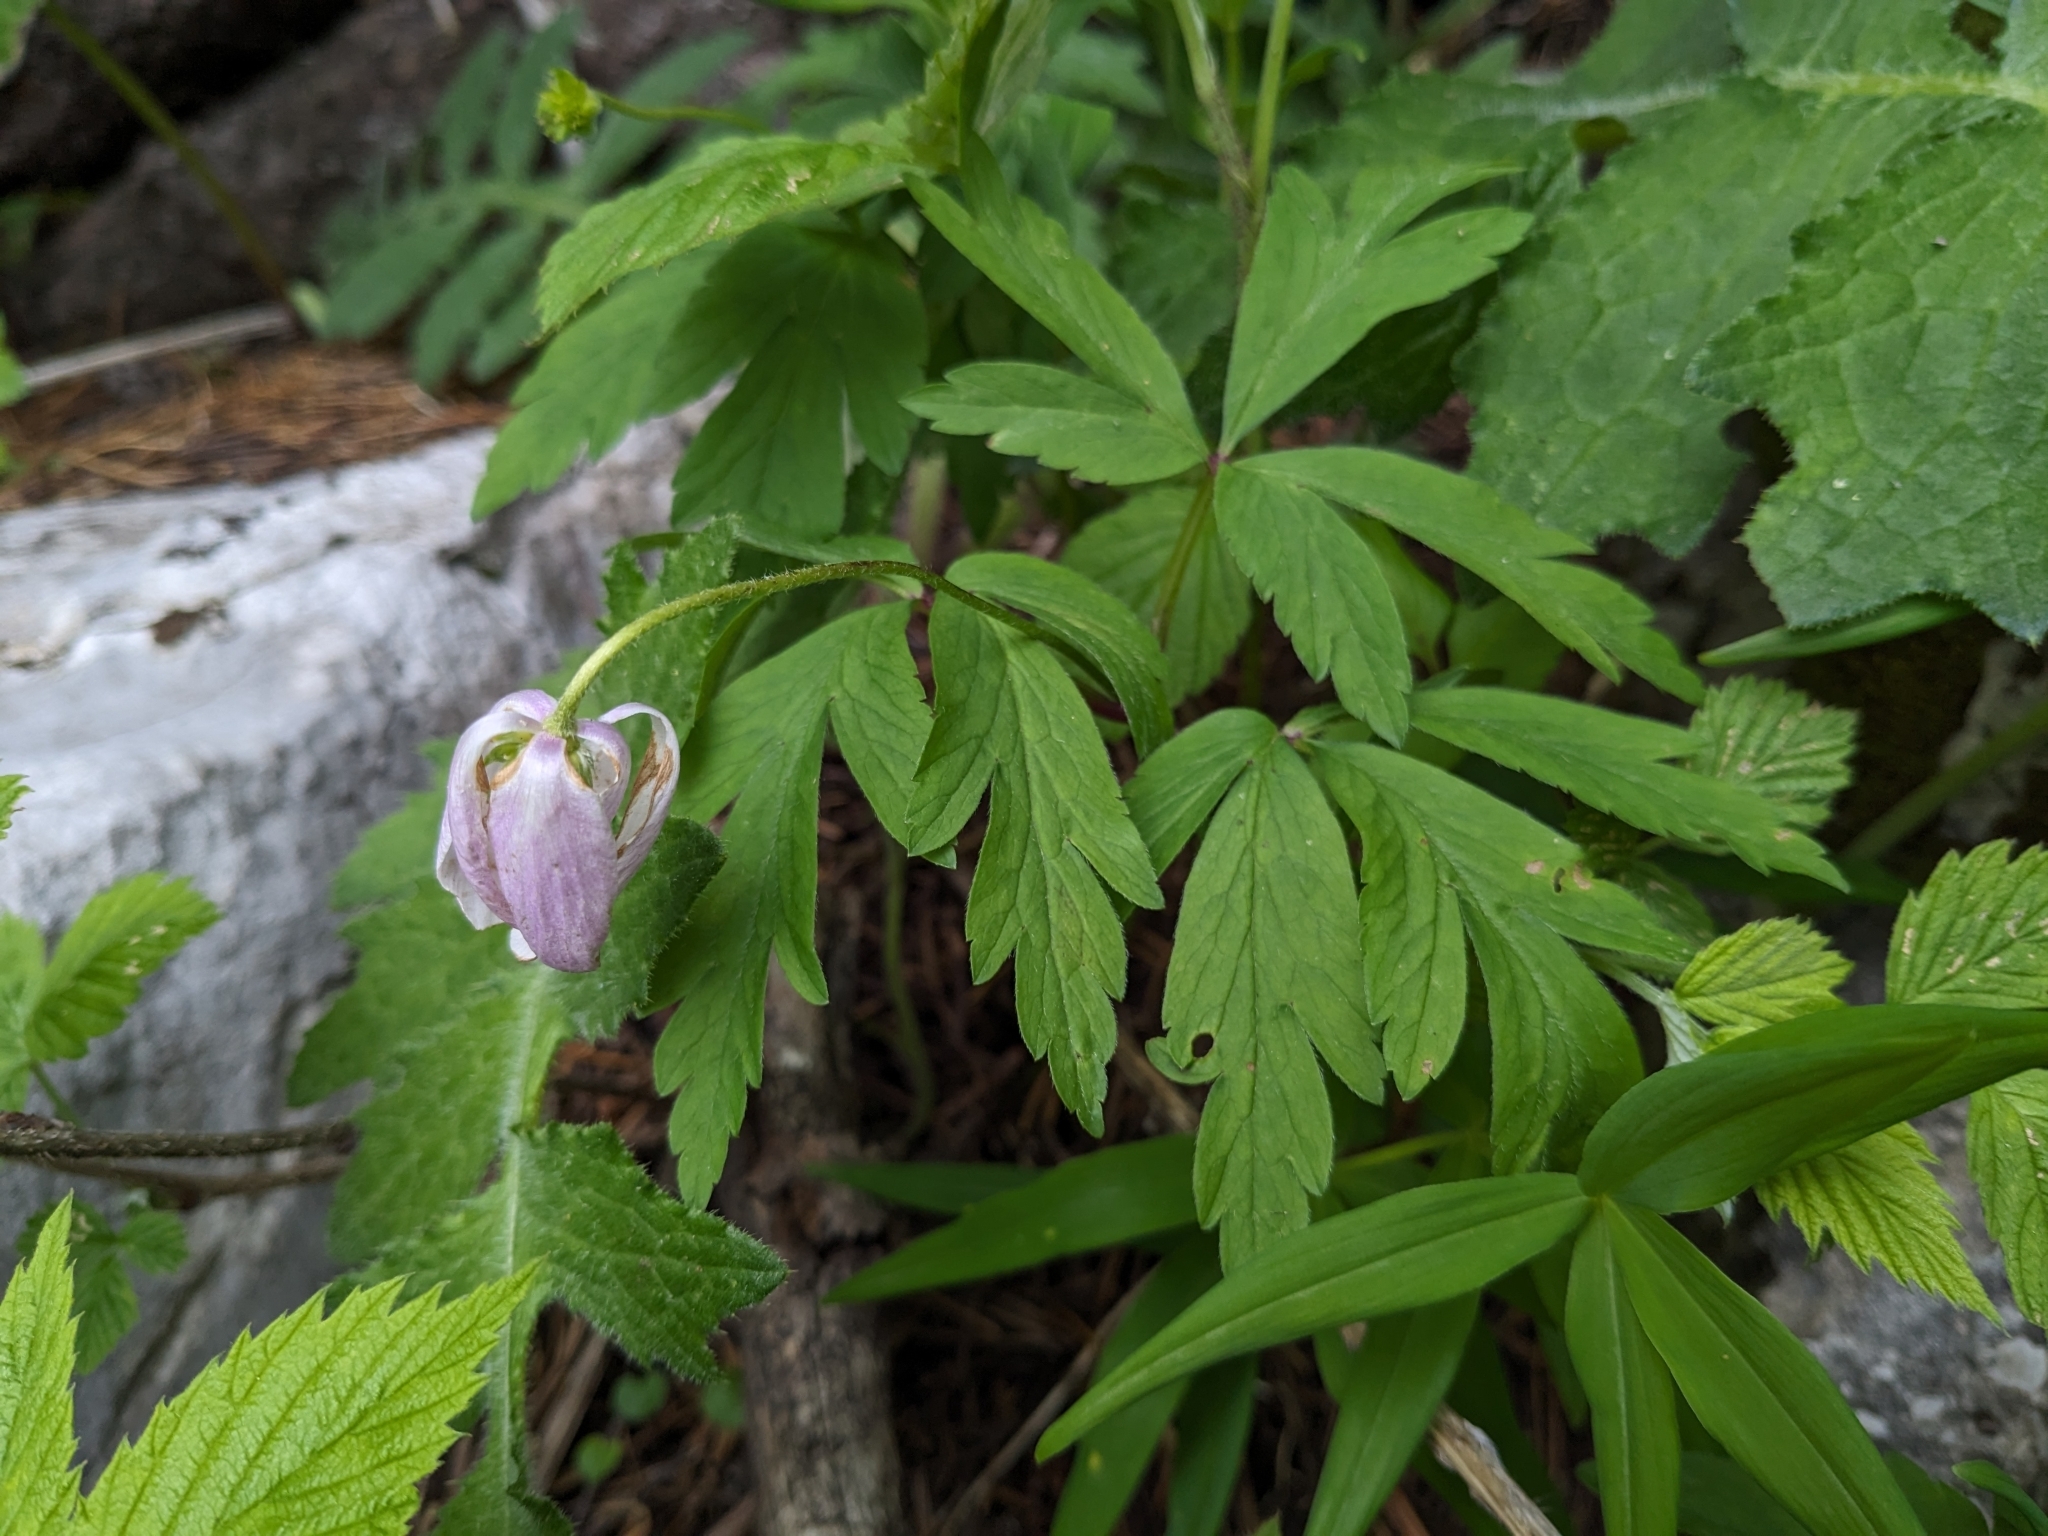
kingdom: Plantae
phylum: Tracheophyta
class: Magnoliopsida
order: Ranunculales
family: Ranunculaceae
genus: Anemone
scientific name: Anemone nemorosa
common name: Wood anemone
